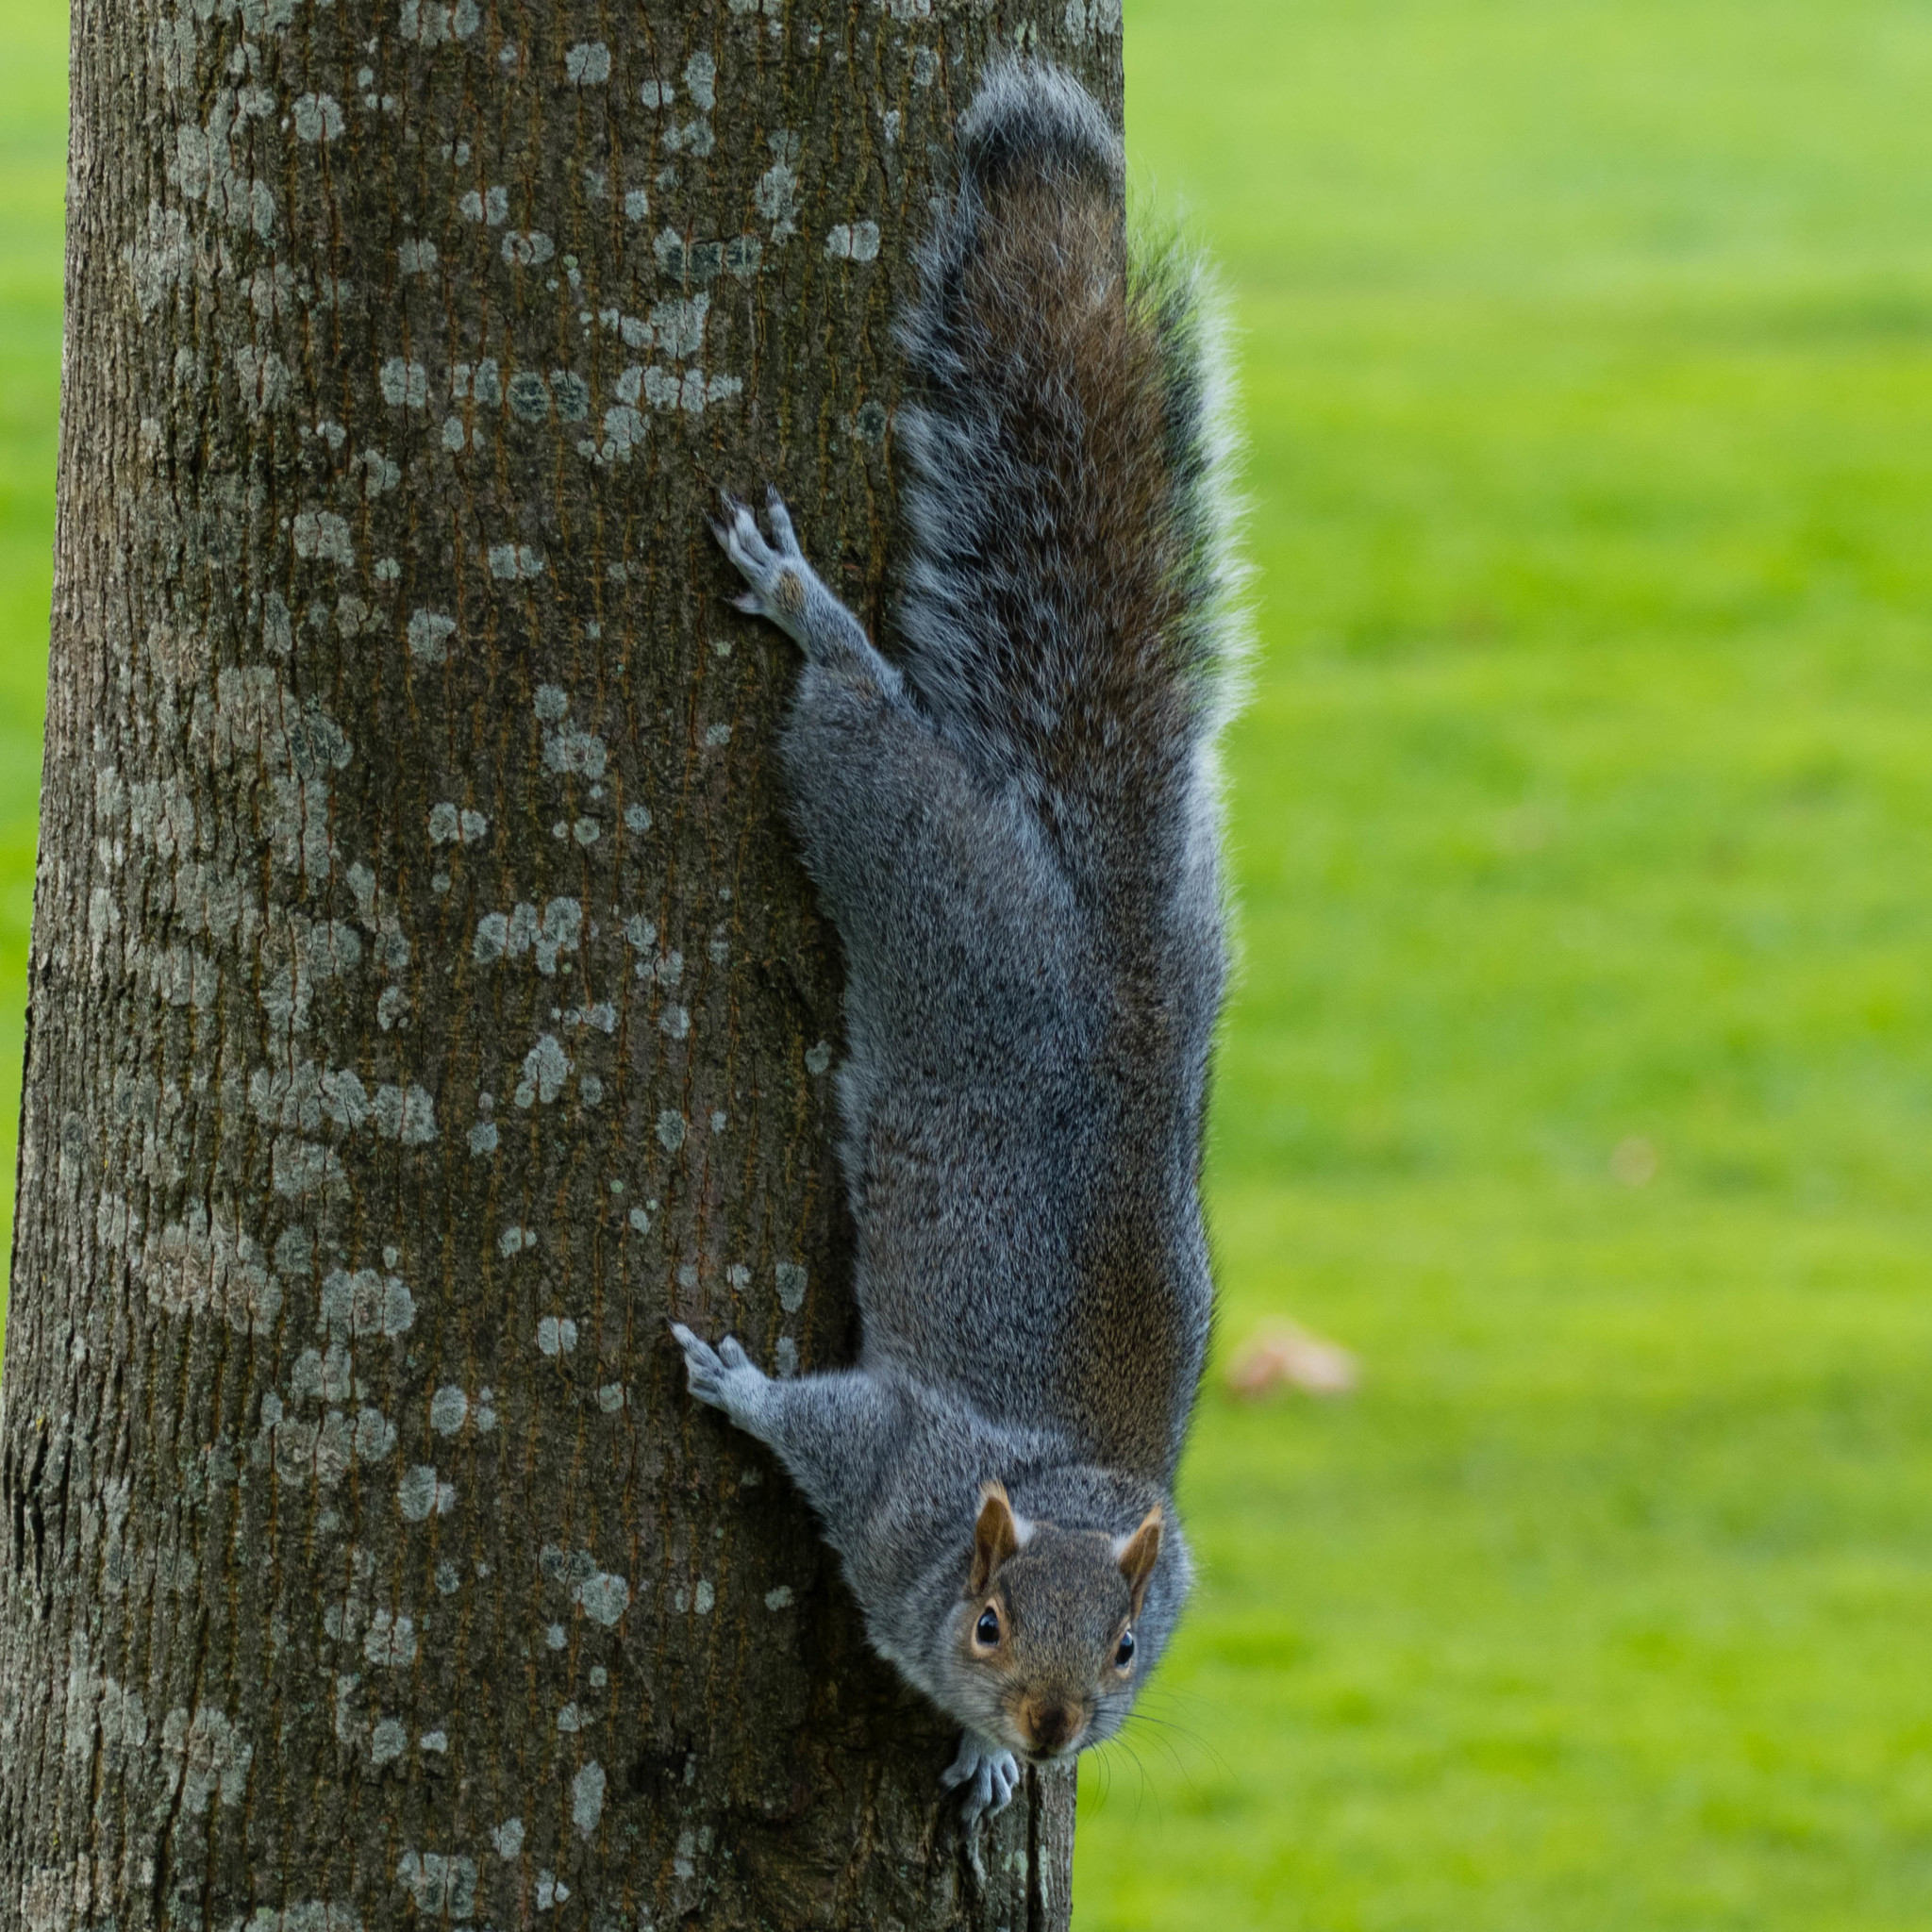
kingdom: Animalia
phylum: Chordata
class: Mammalia
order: Rodentia
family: Sciuridae
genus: Sciurus
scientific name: Sciurus carolinensis
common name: Eastern gray squirrel
